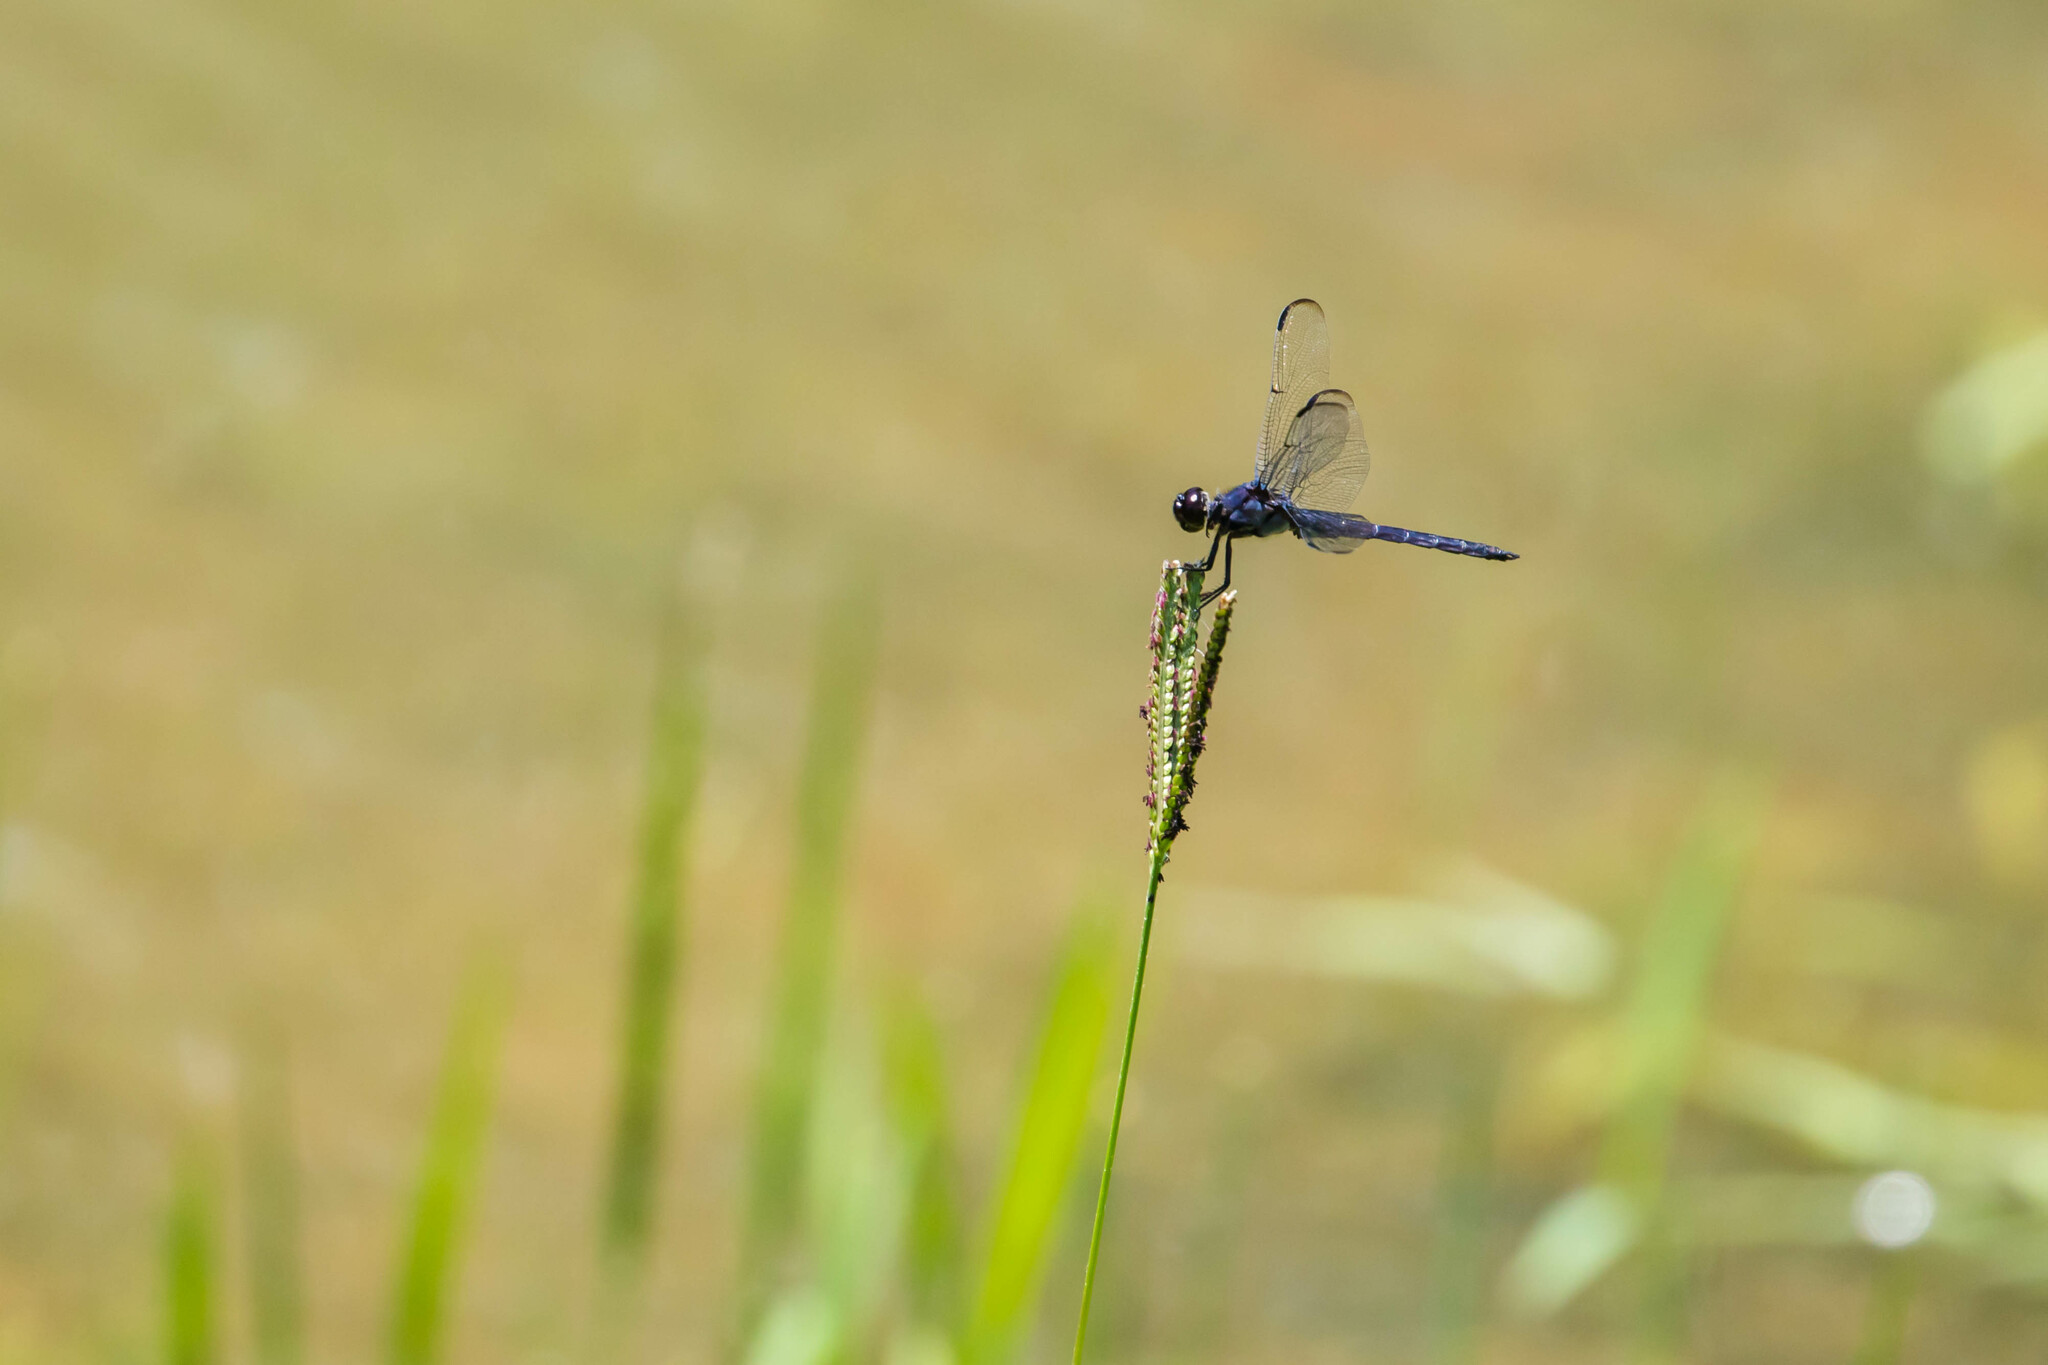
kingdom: Animalia
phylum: Arthropoda
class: Insecta
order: Odonata
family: Libellulidae
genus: Libellula
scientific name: Libellula incesta
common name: Slaty skimmer
